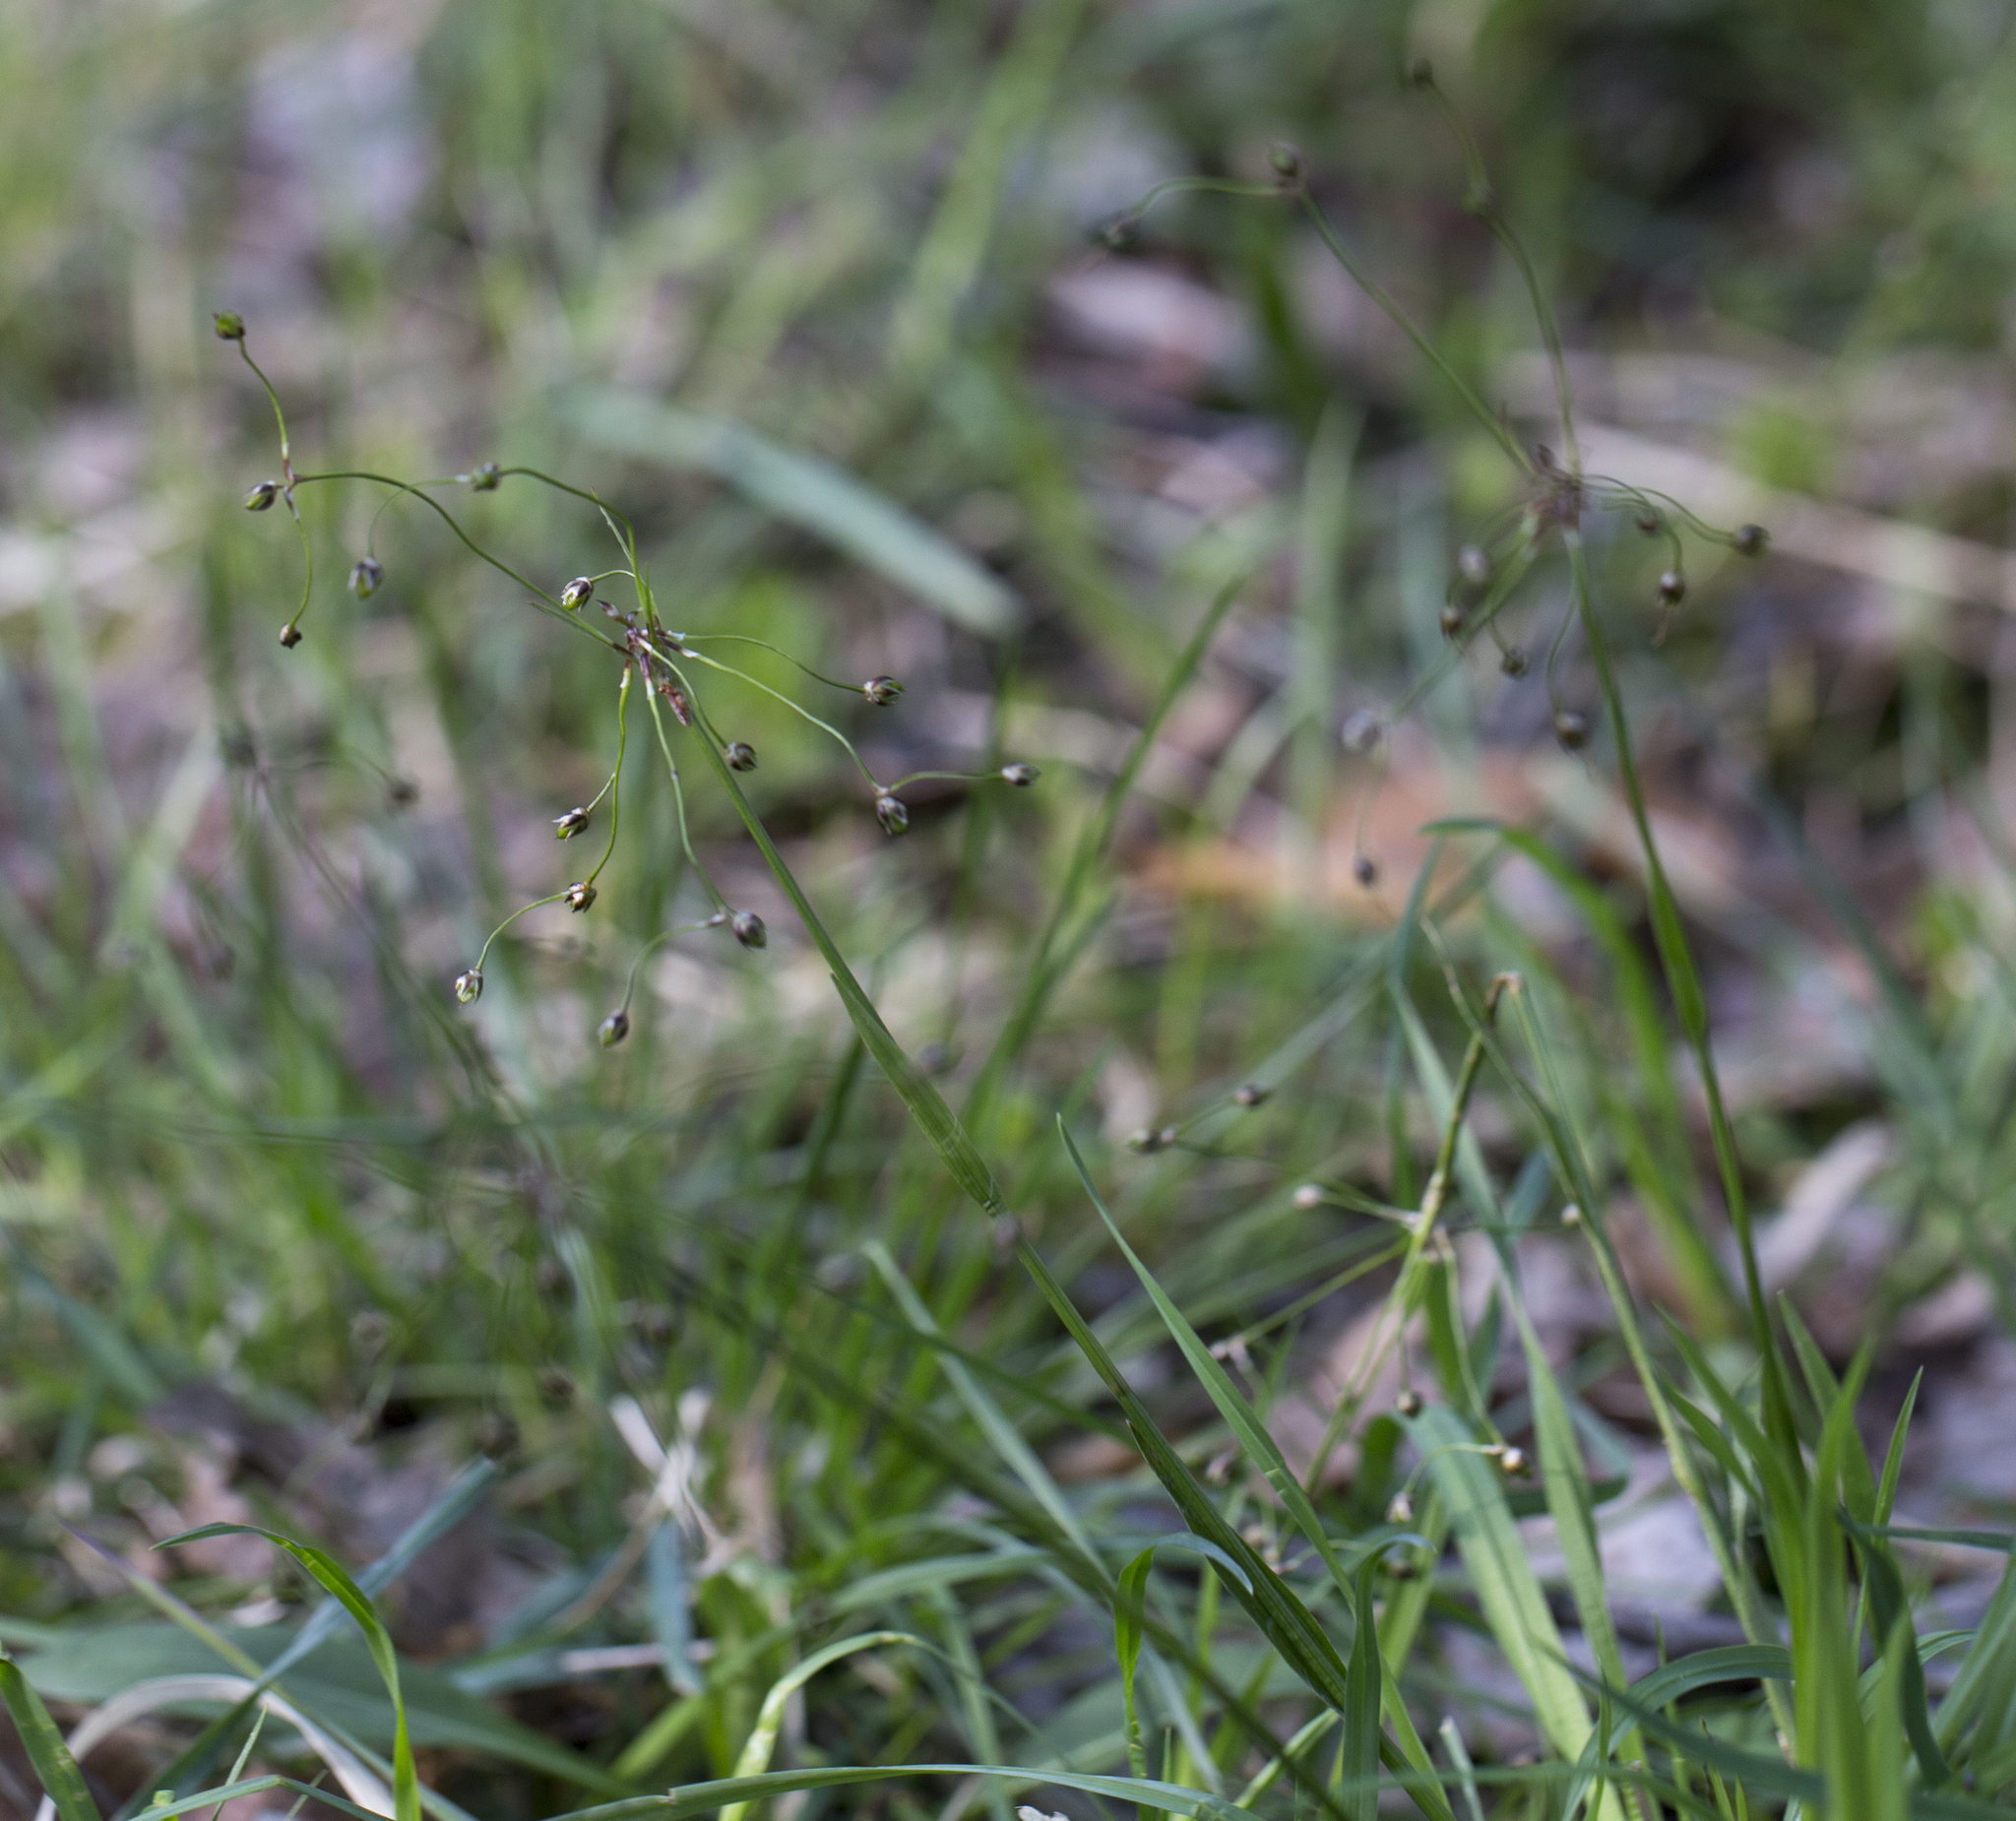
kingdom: Plantae
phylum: Tracheophyta
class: Liliopsida
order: Poales
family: Juncaceae
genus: Luzula
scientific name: Luzula pilosa
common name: Hairy wood-rush
